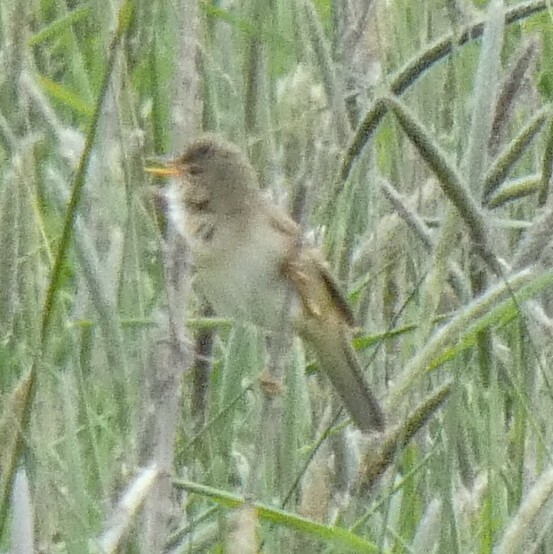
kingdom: Animalia
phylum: Chordata
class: Aves
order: Passeriformes
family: Acrocephalidae
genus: Acrocephalus
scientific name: Acrocephalus palustris
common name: Marsh warbler
